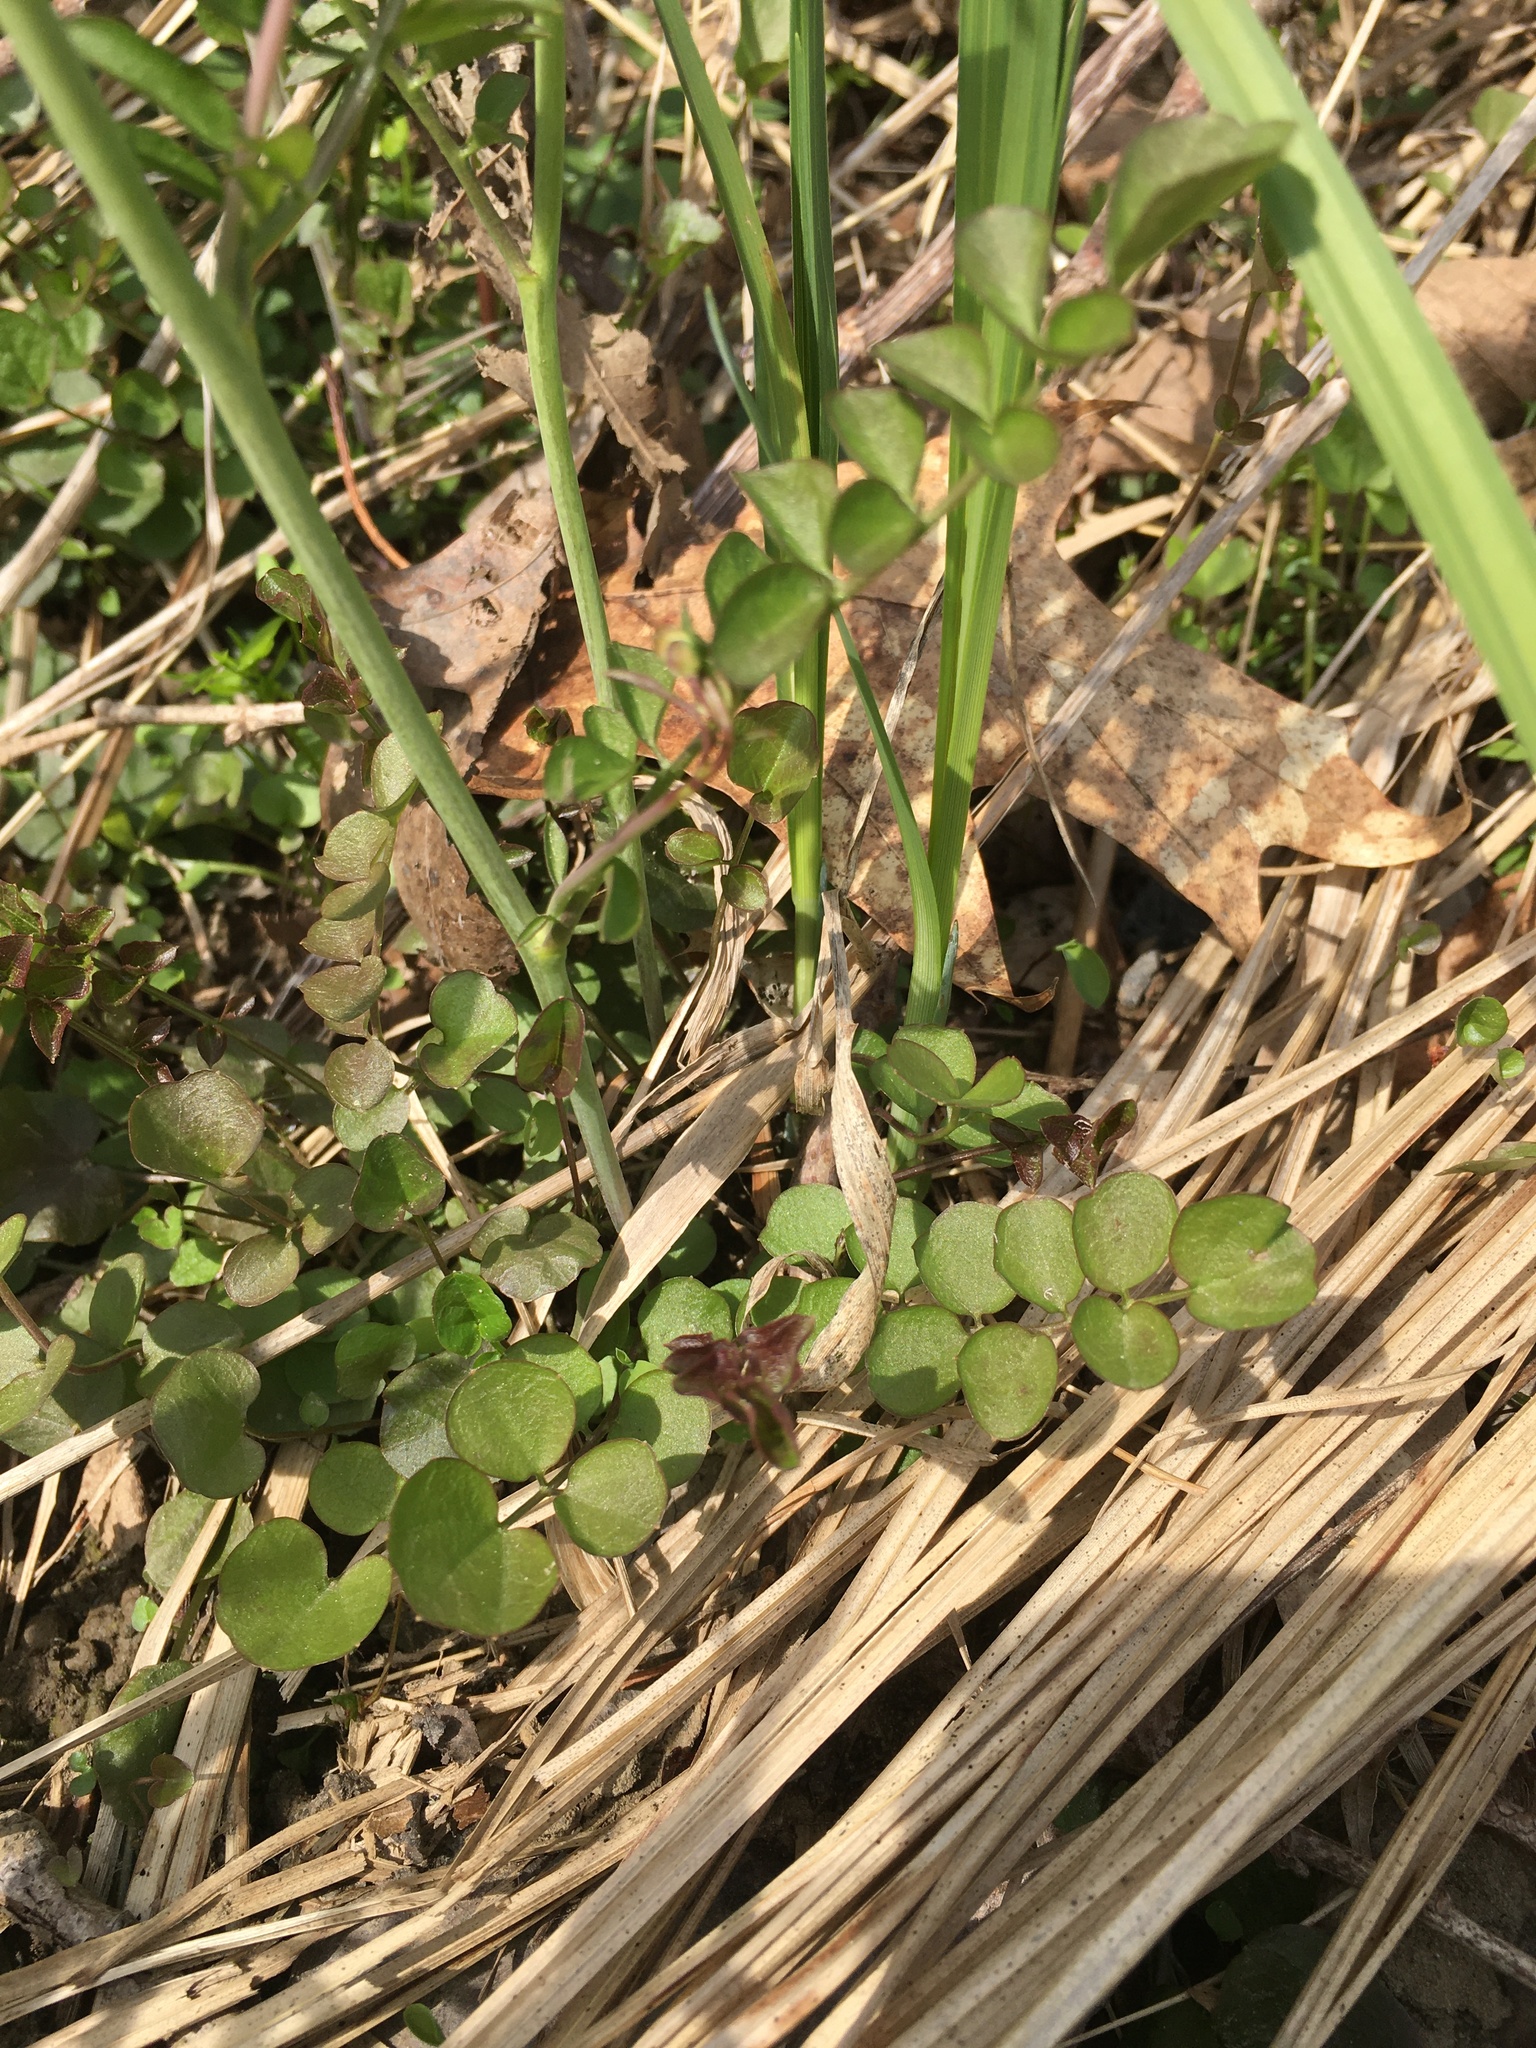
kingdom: Plantae
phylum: Tracheophyta
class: Magnoliopsida
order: Brassicales
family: Brassicaceae
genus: Cardamine
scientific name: Cardamine pratensis
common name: Cuckoo flower
